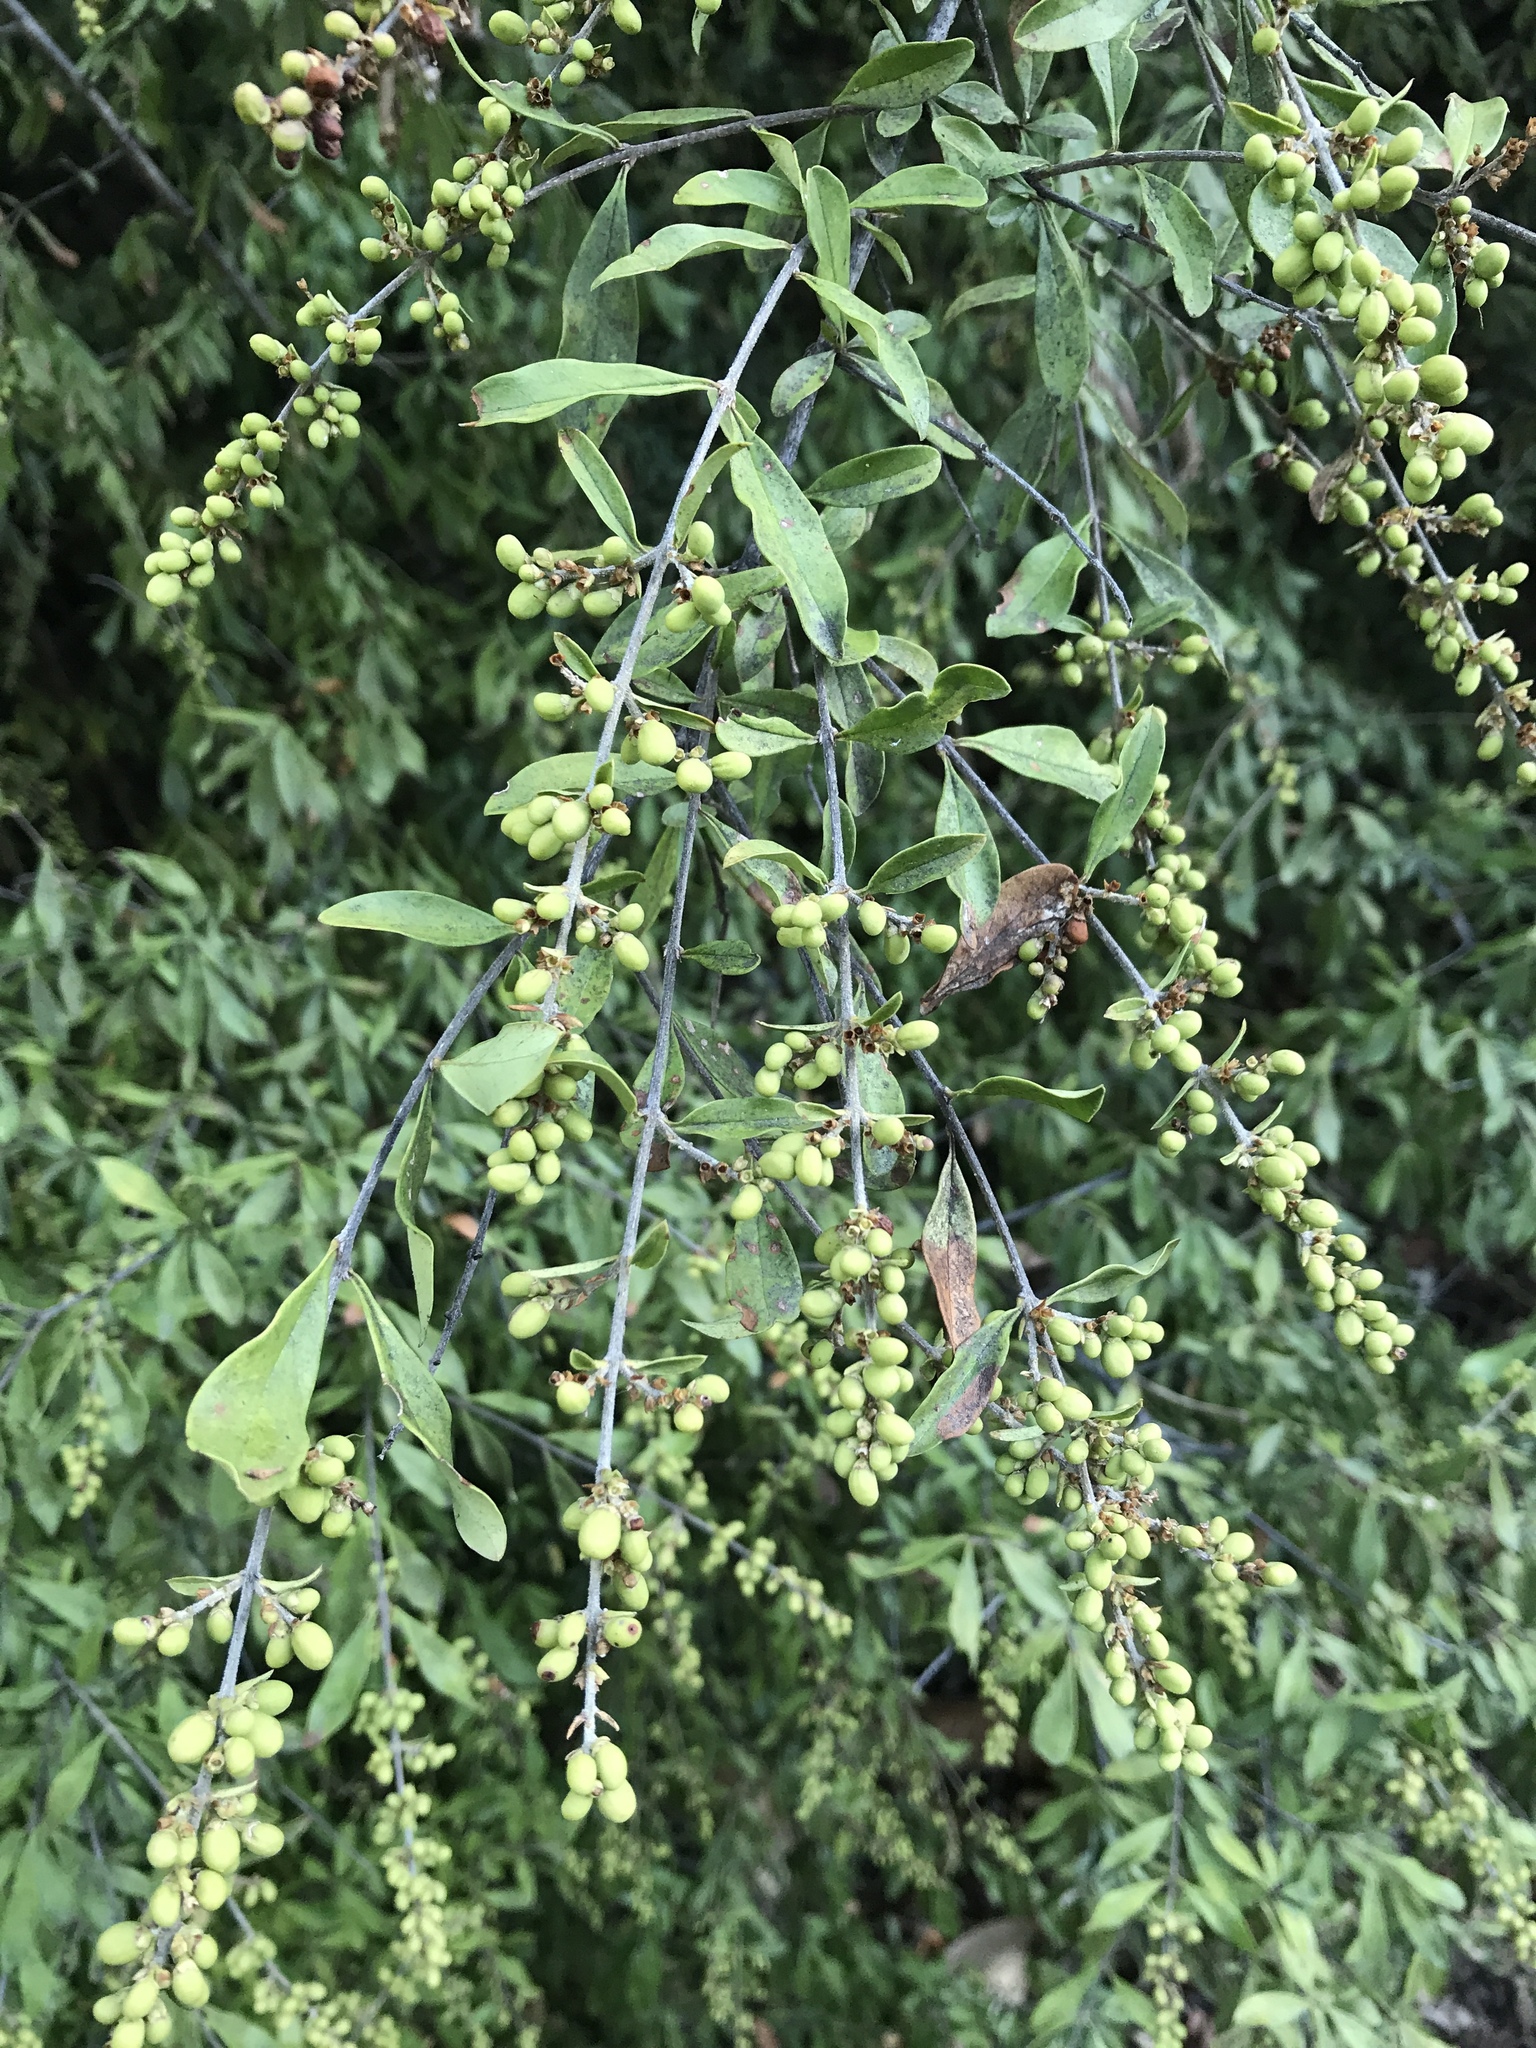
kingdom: Plantae
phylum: Tracheophyta
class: Magnoliopsida
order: Lamiales
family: Oleaceae
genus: Ligustrum
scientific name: Ligustrum quihoui
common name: Waxyleaf privet
